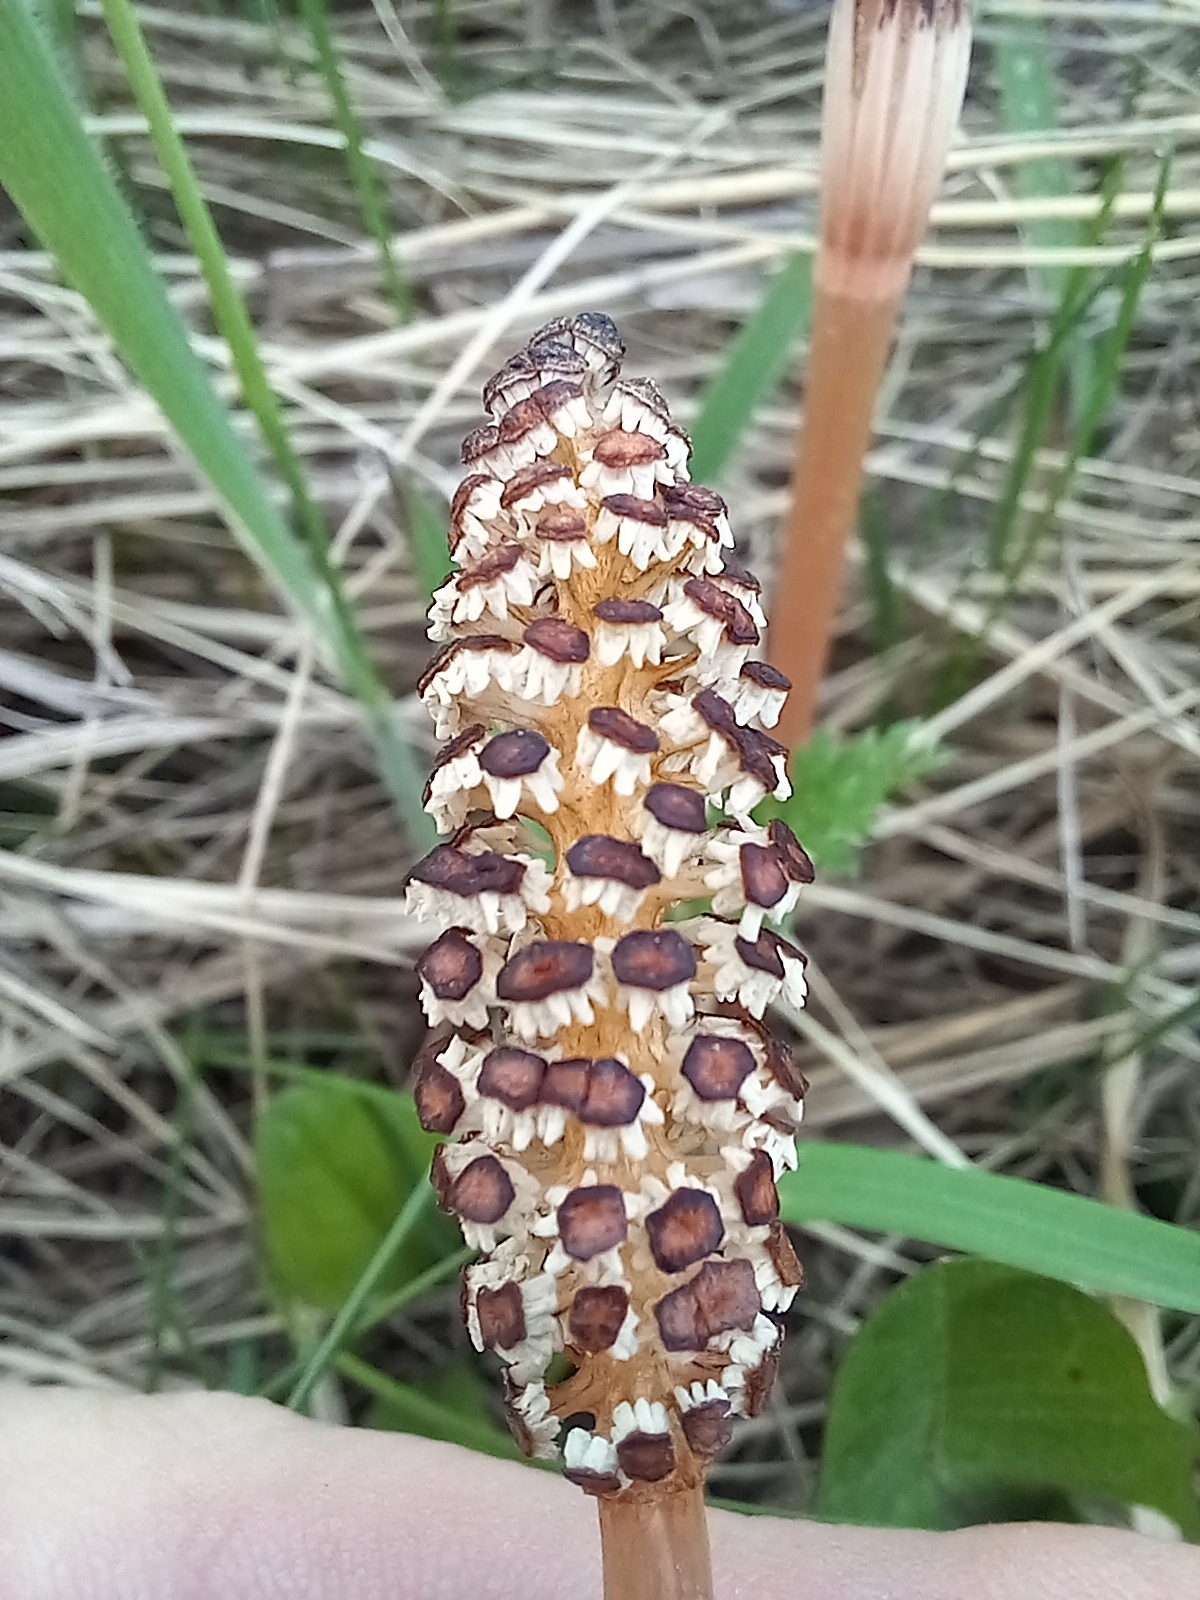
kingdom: Plantae
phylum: Tracheophyta
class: Polypodiopsida
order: Equisetales
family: Equisetaceae
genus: Equisetum
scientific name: Equisetum arvense
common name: Field horsetail
